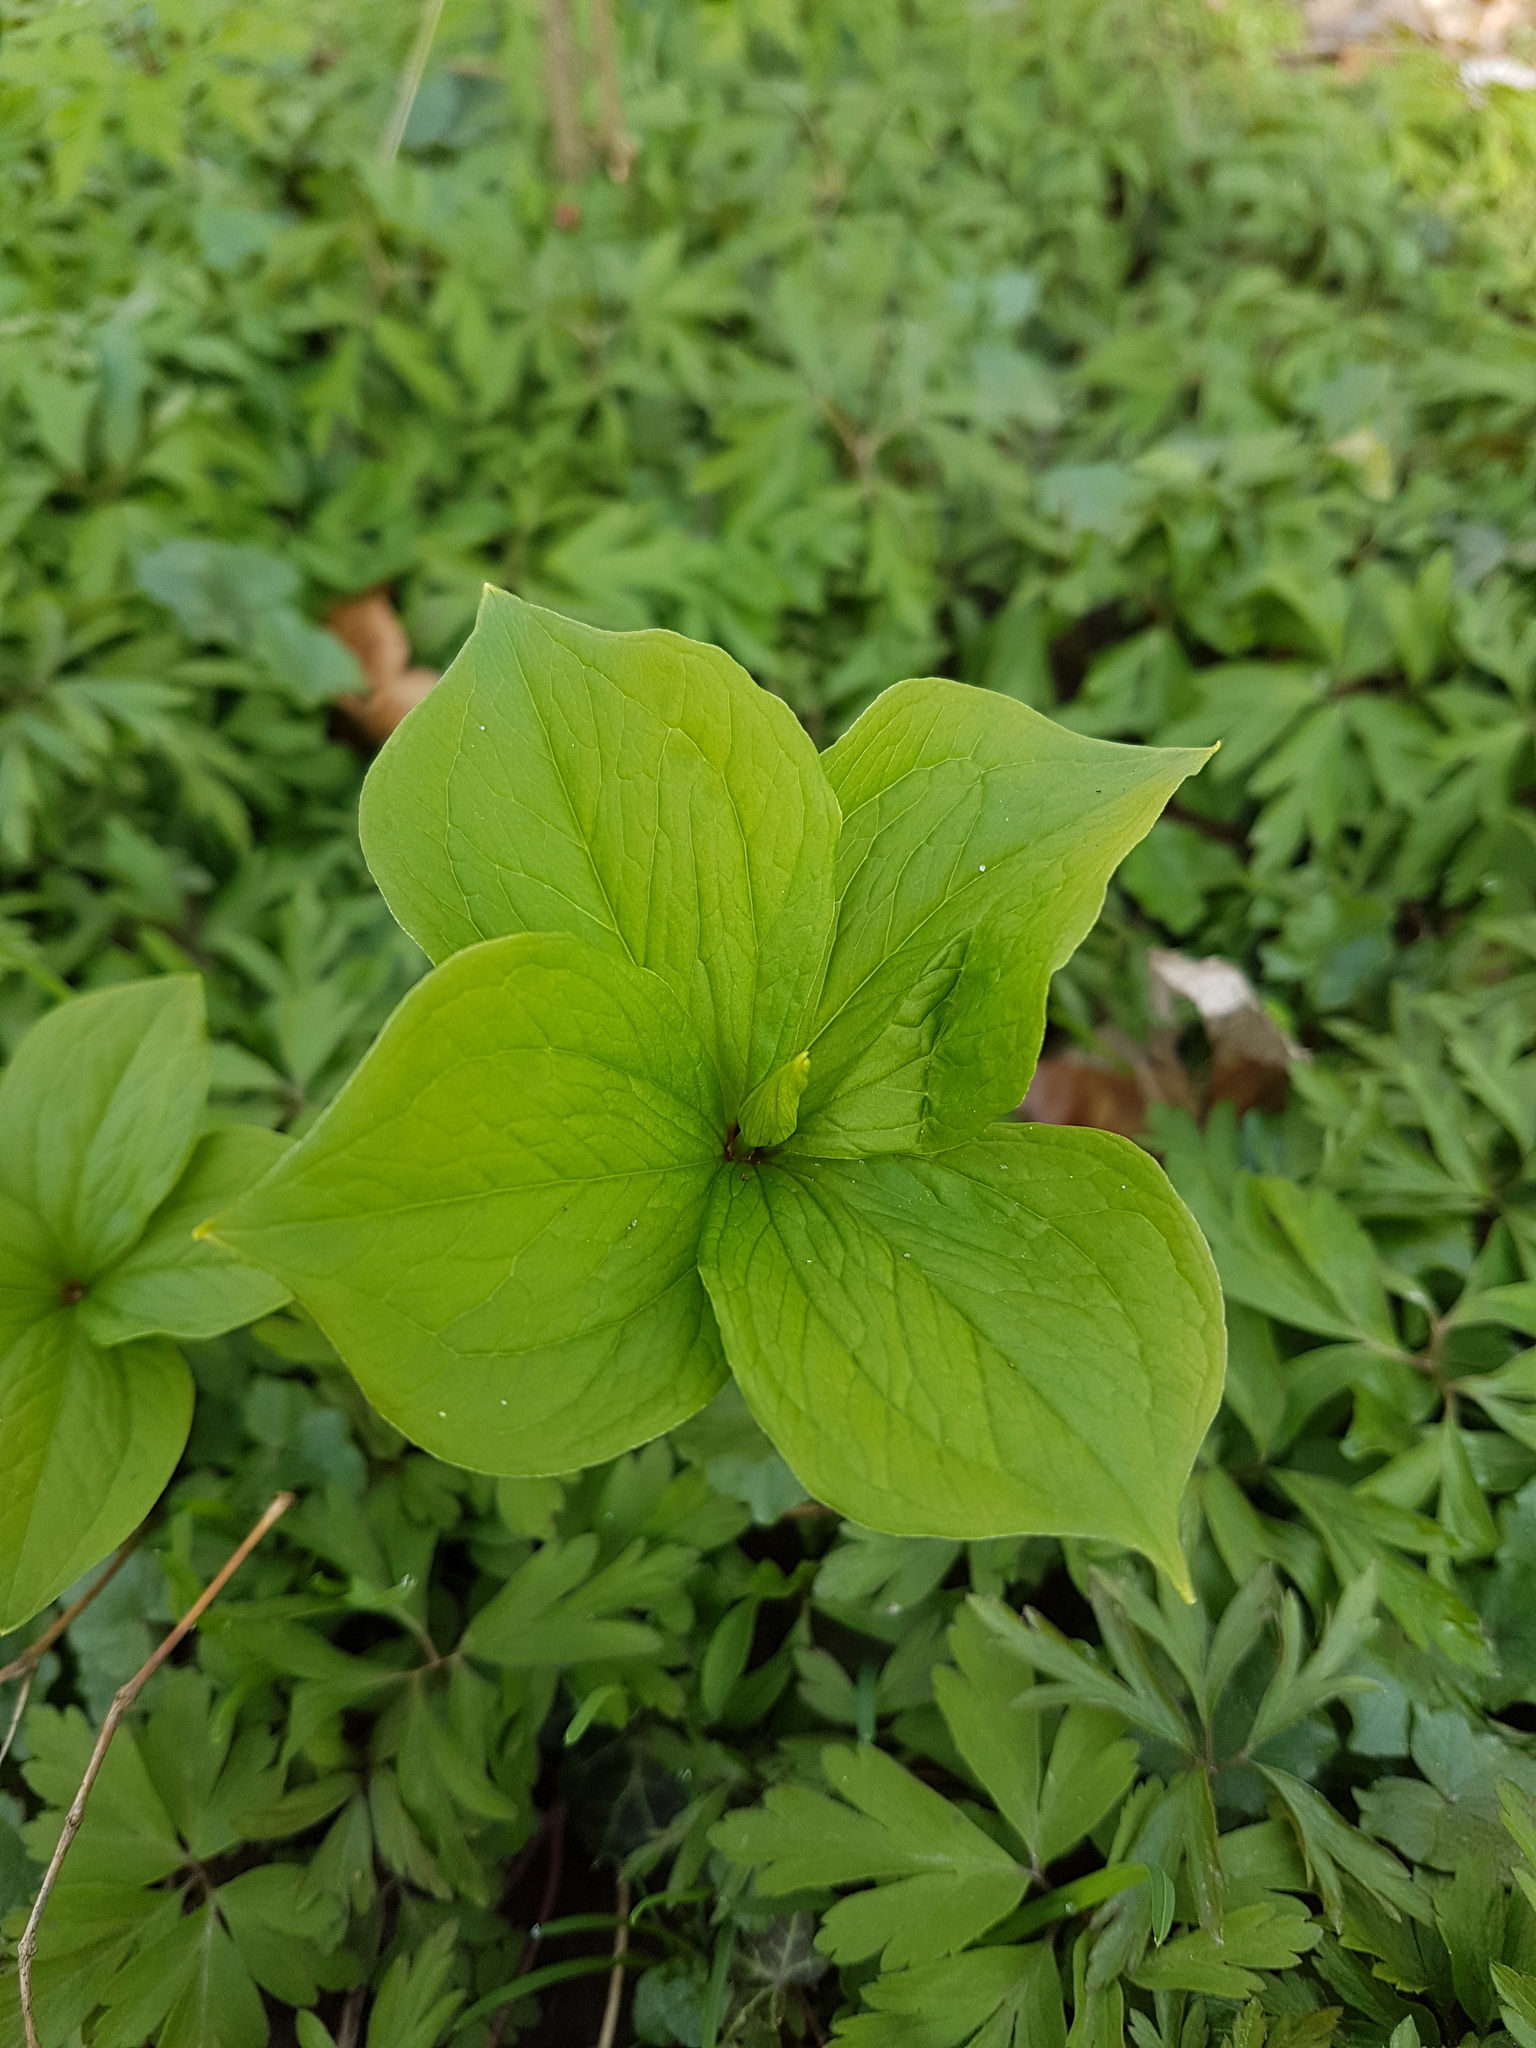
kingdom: Plantae
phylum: Tracheophyta
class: Liliopsida
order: Liliales
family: Melanthiaceae
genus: Paris
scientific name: Paris quadrifolia
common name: Herb-paris
